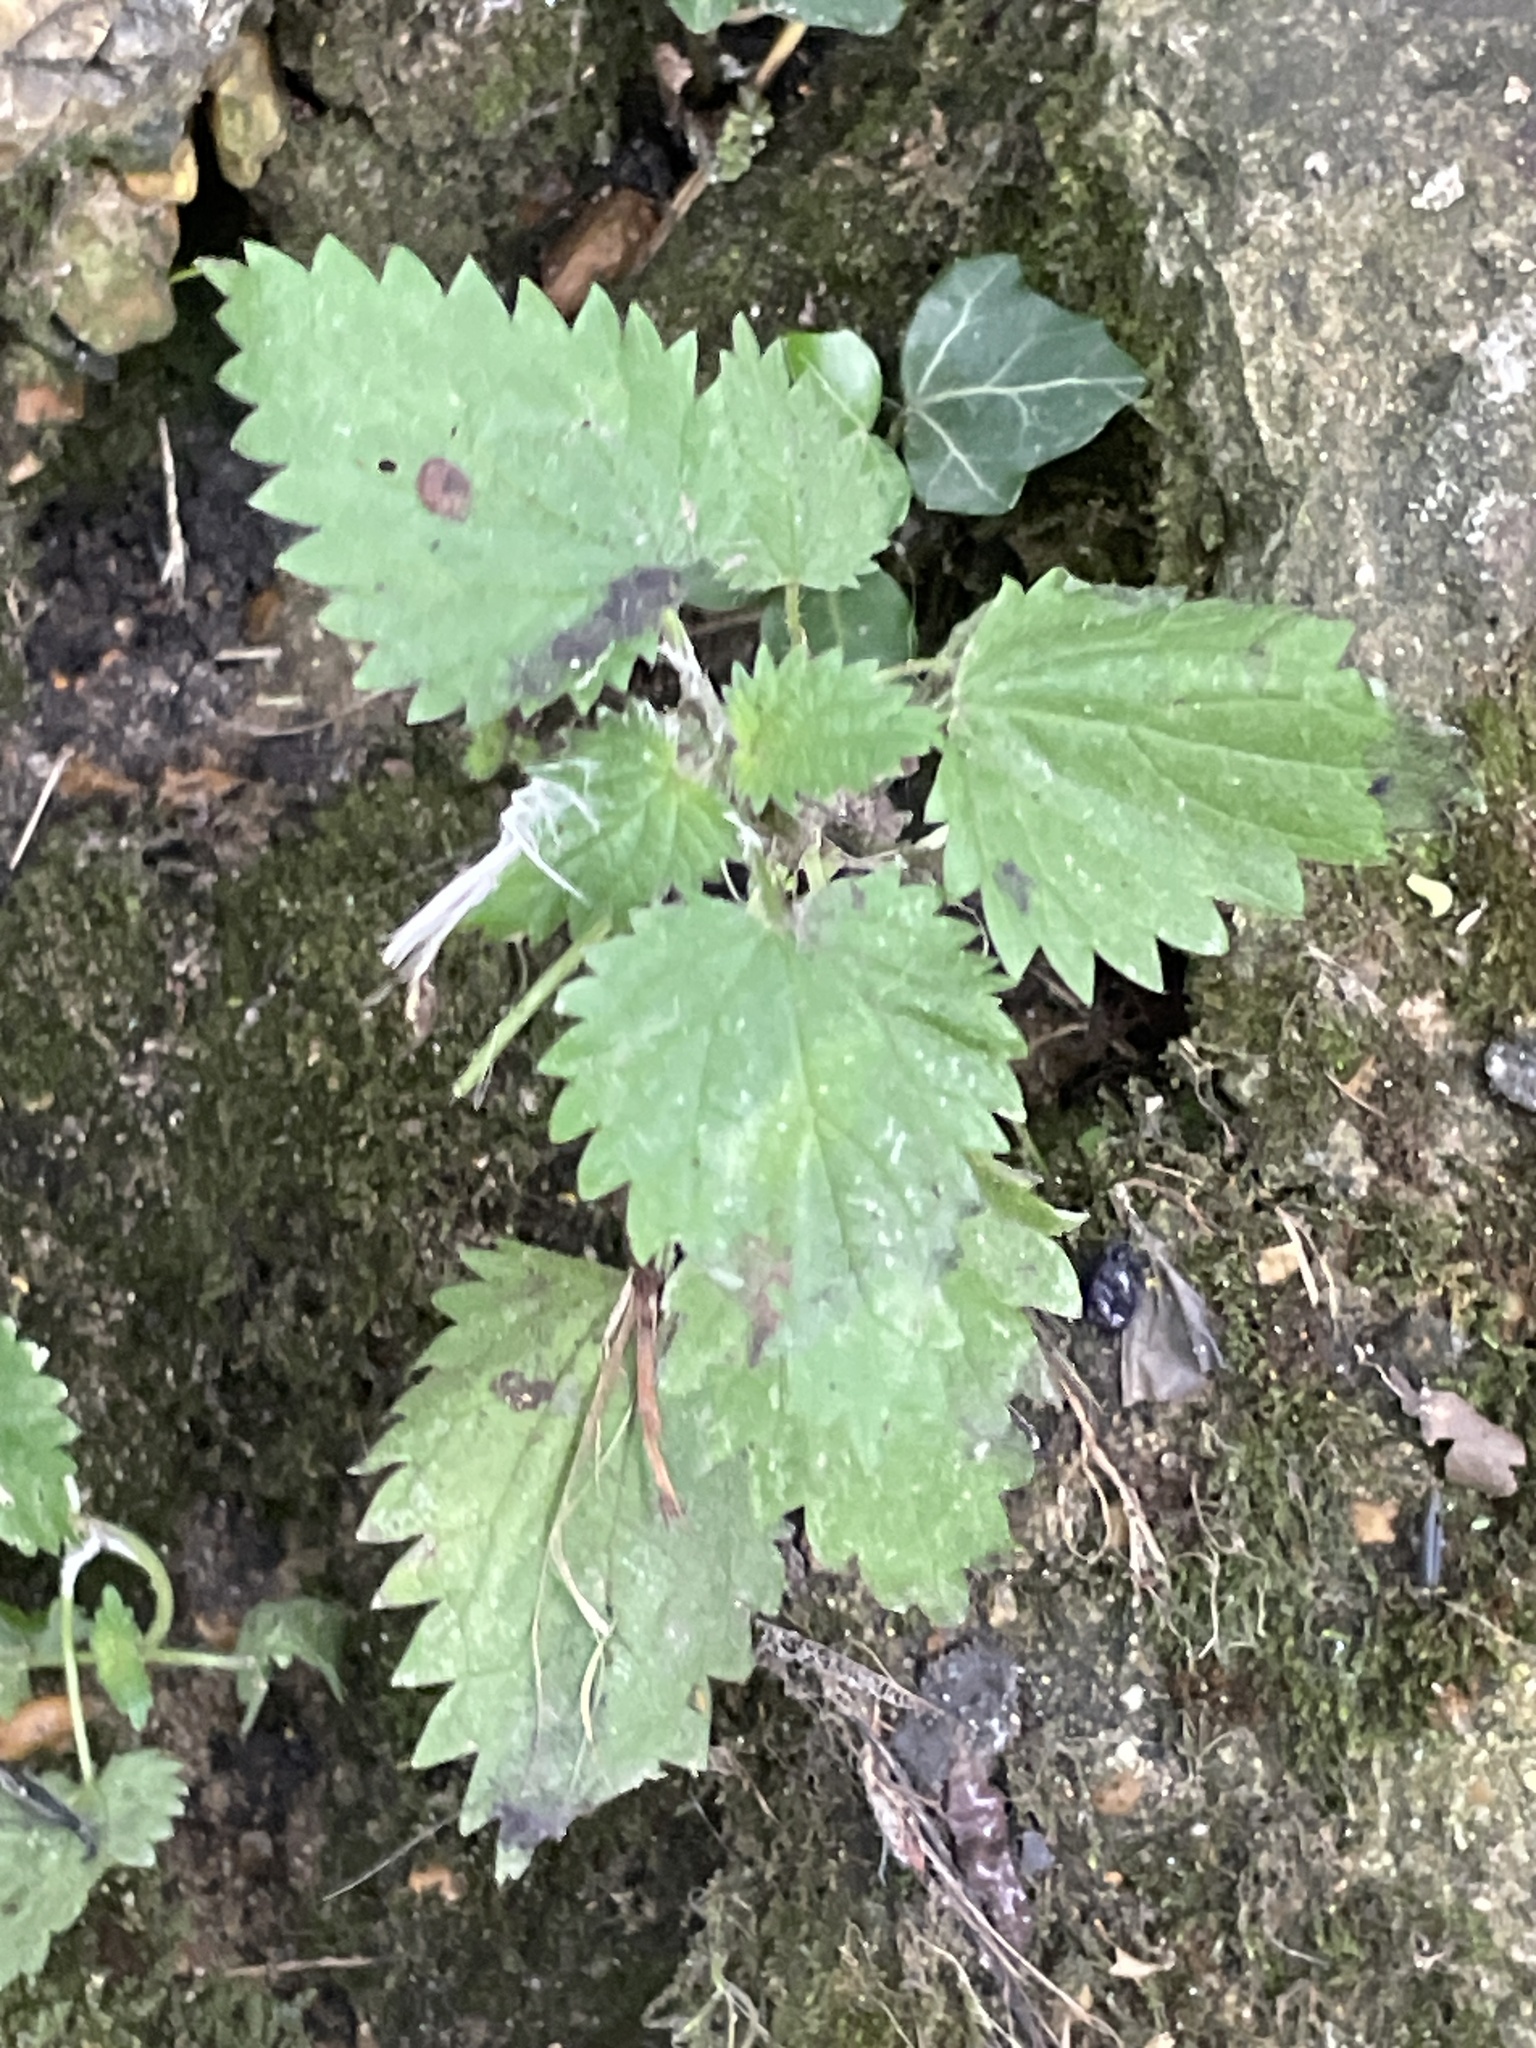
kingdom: Plantae
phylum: Tracheophyta
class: Magnoliopsida
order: Rosales
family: Urticaceae
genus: Urtica
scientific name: Urtica dioica
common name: Common nettle
